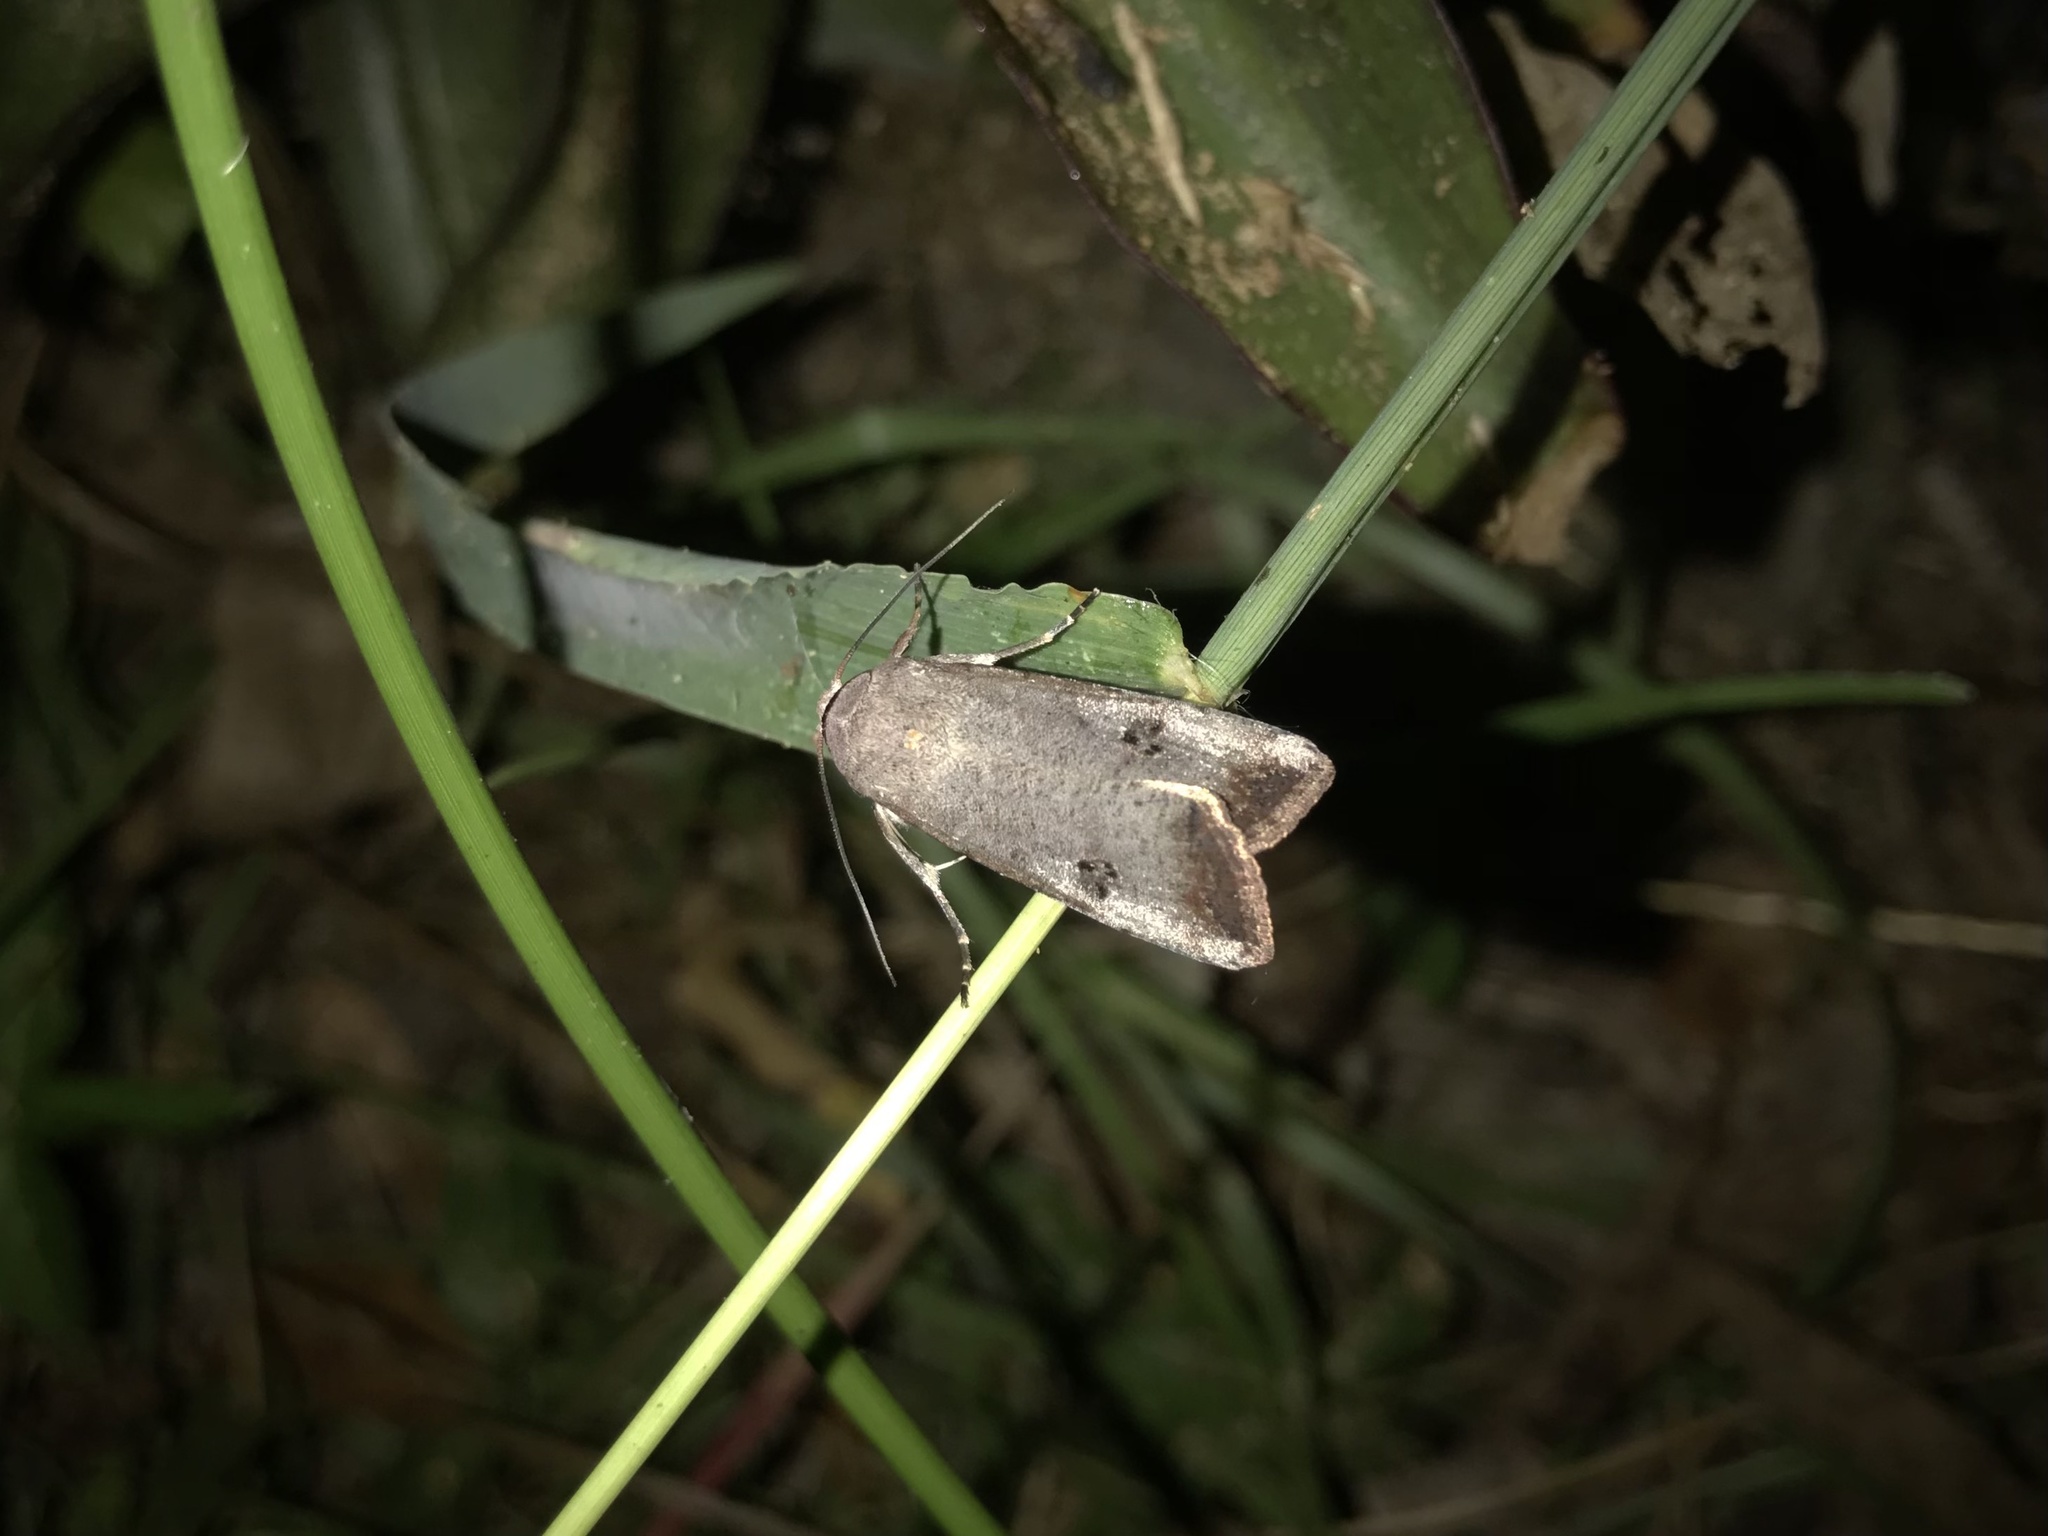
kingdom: Animalia
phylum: Arthropoda
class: Insecta
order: Lepidoptera
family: Noctuidae
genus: Anicla
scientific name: Anicla infecta
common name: Green cutworm
